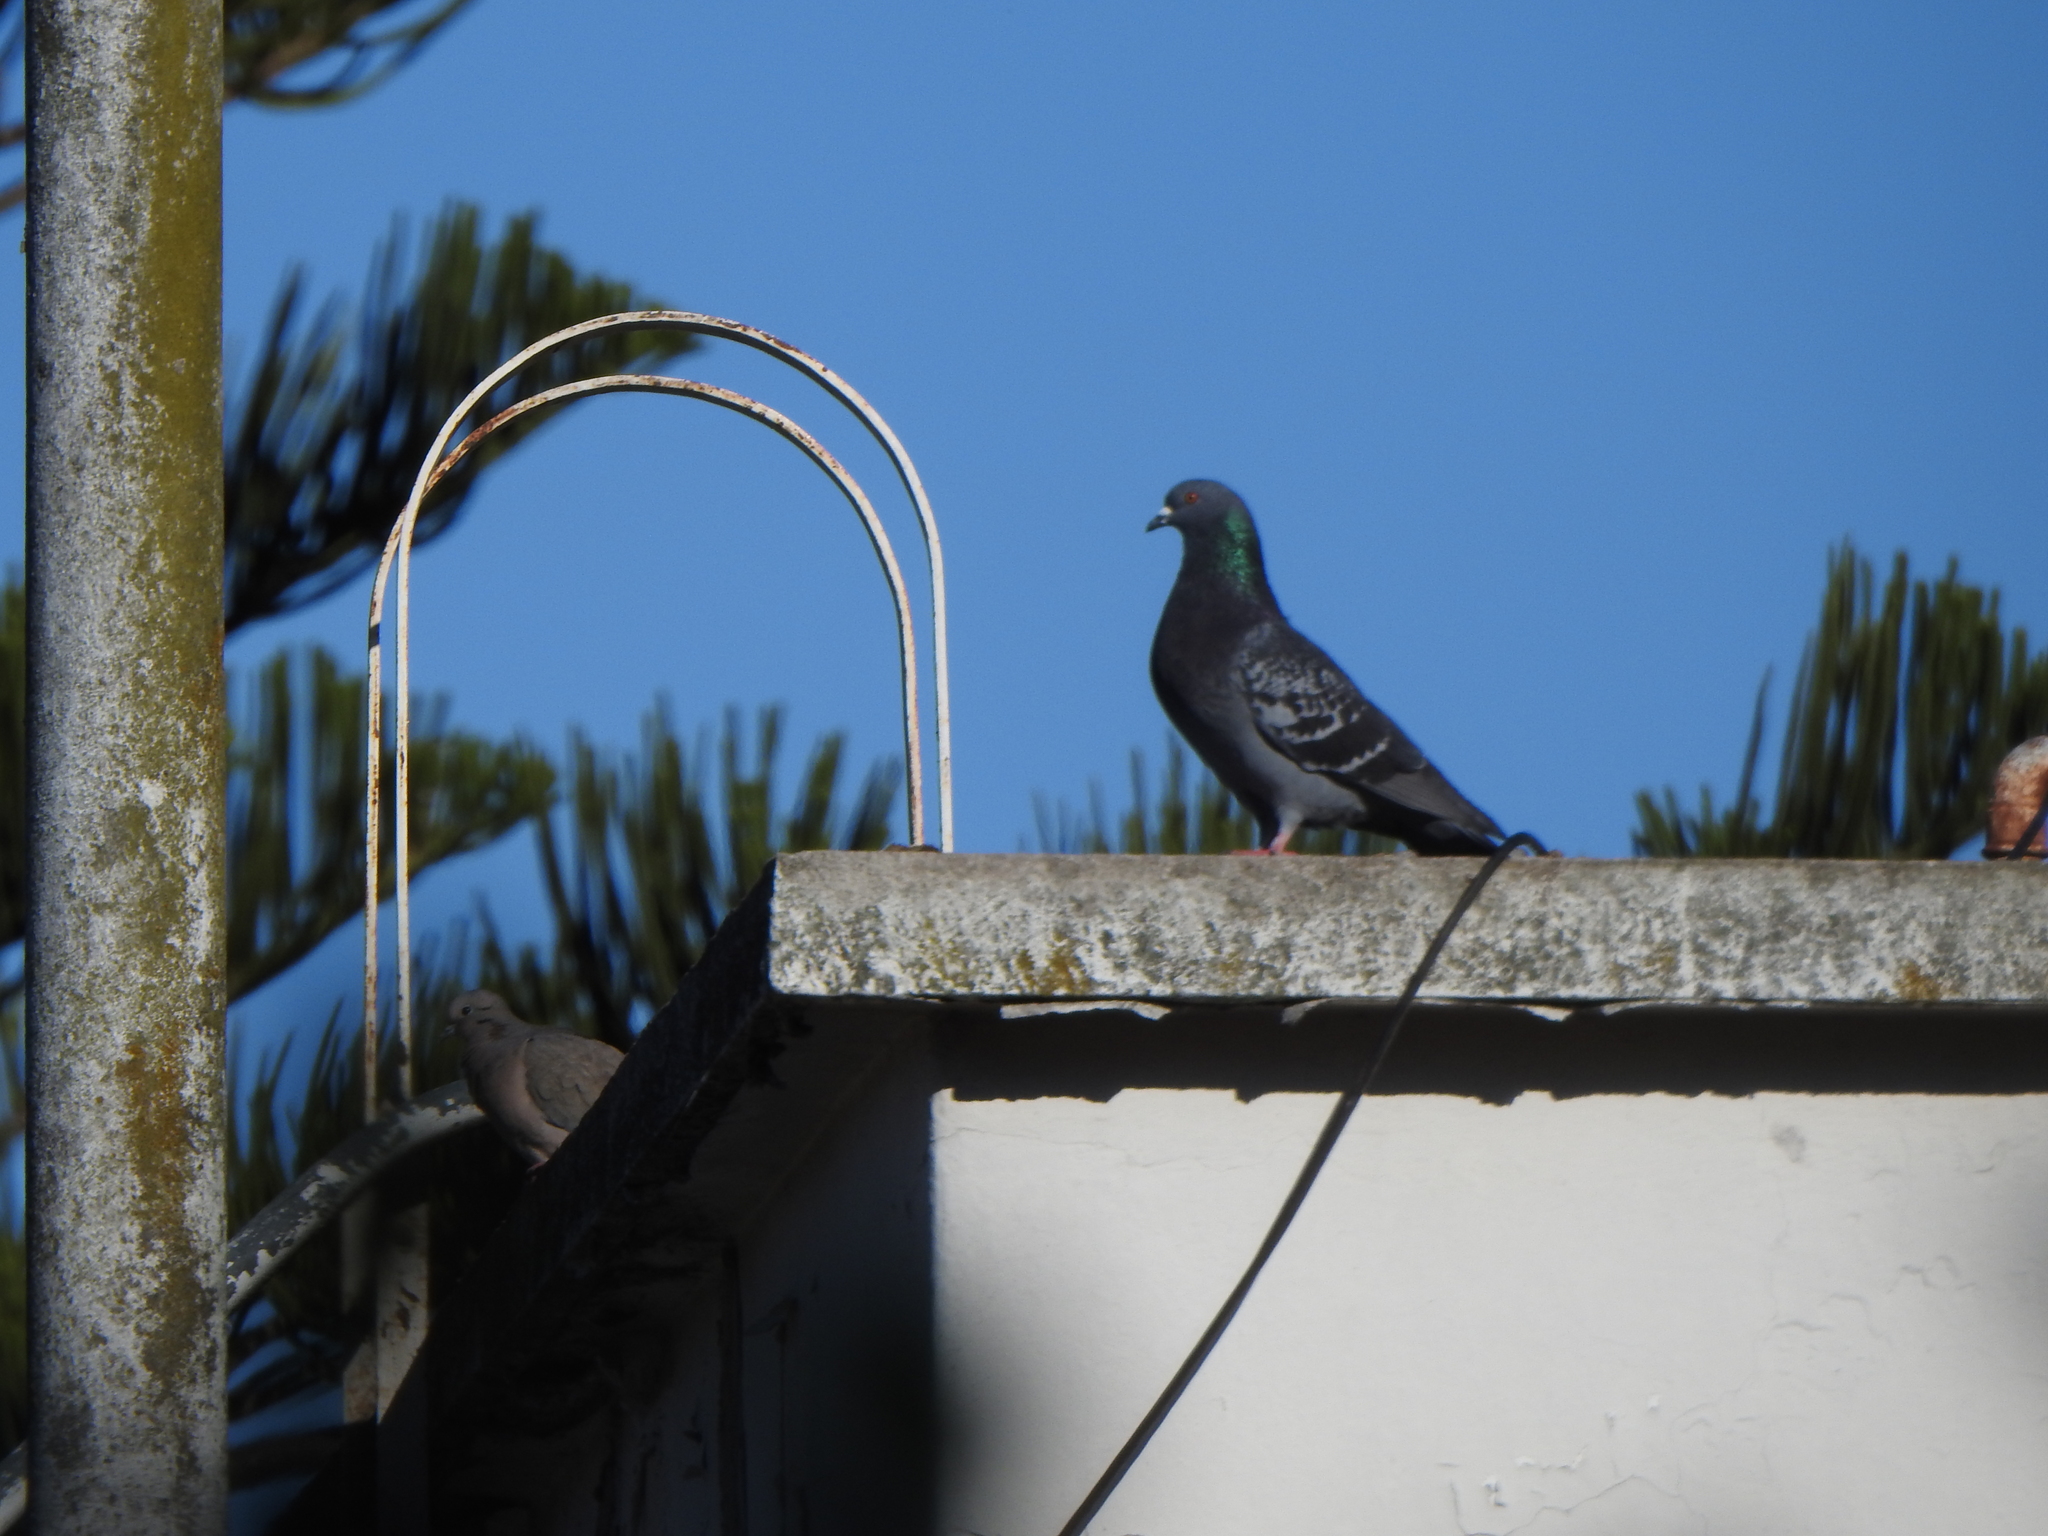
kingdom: Animalia
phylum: Chordata
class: Aves
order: Columbiformes
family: Columbidae
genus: Columba
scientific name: Columba livia
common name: Rock pigeon
